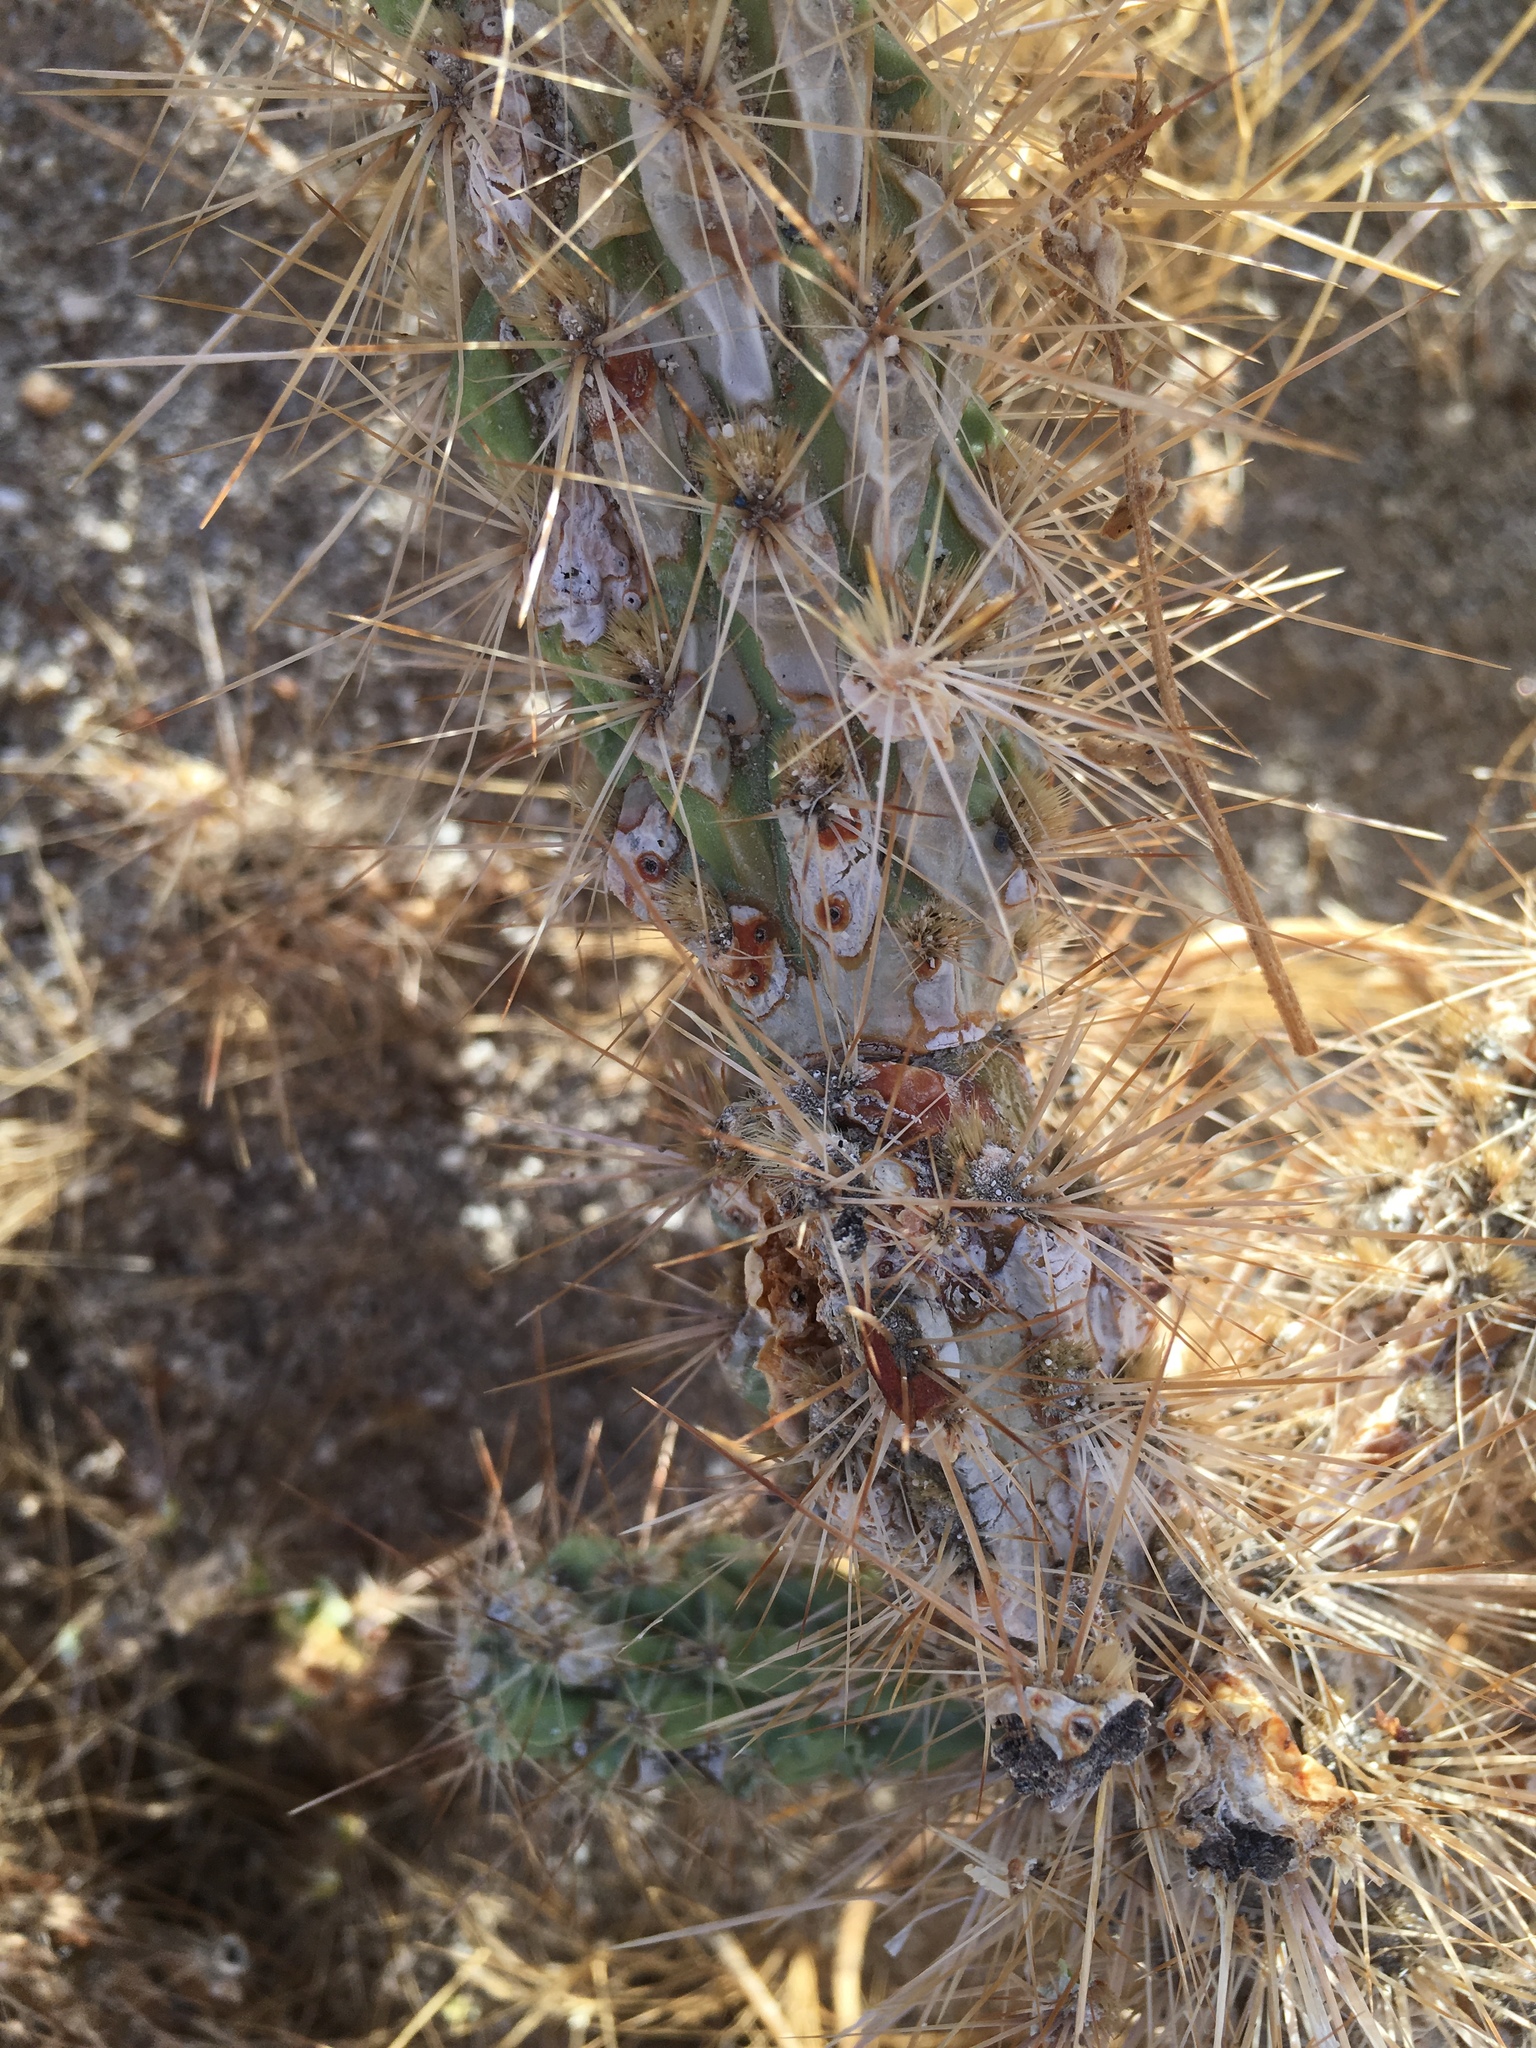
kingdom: Plantae
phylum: Tracheophyta
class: Magnoliopsida
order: Caryophyllales
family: Cactaceae
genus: Cylindropuntia
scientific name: Cylindropuntia echinocarpa
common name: Ground cholla
